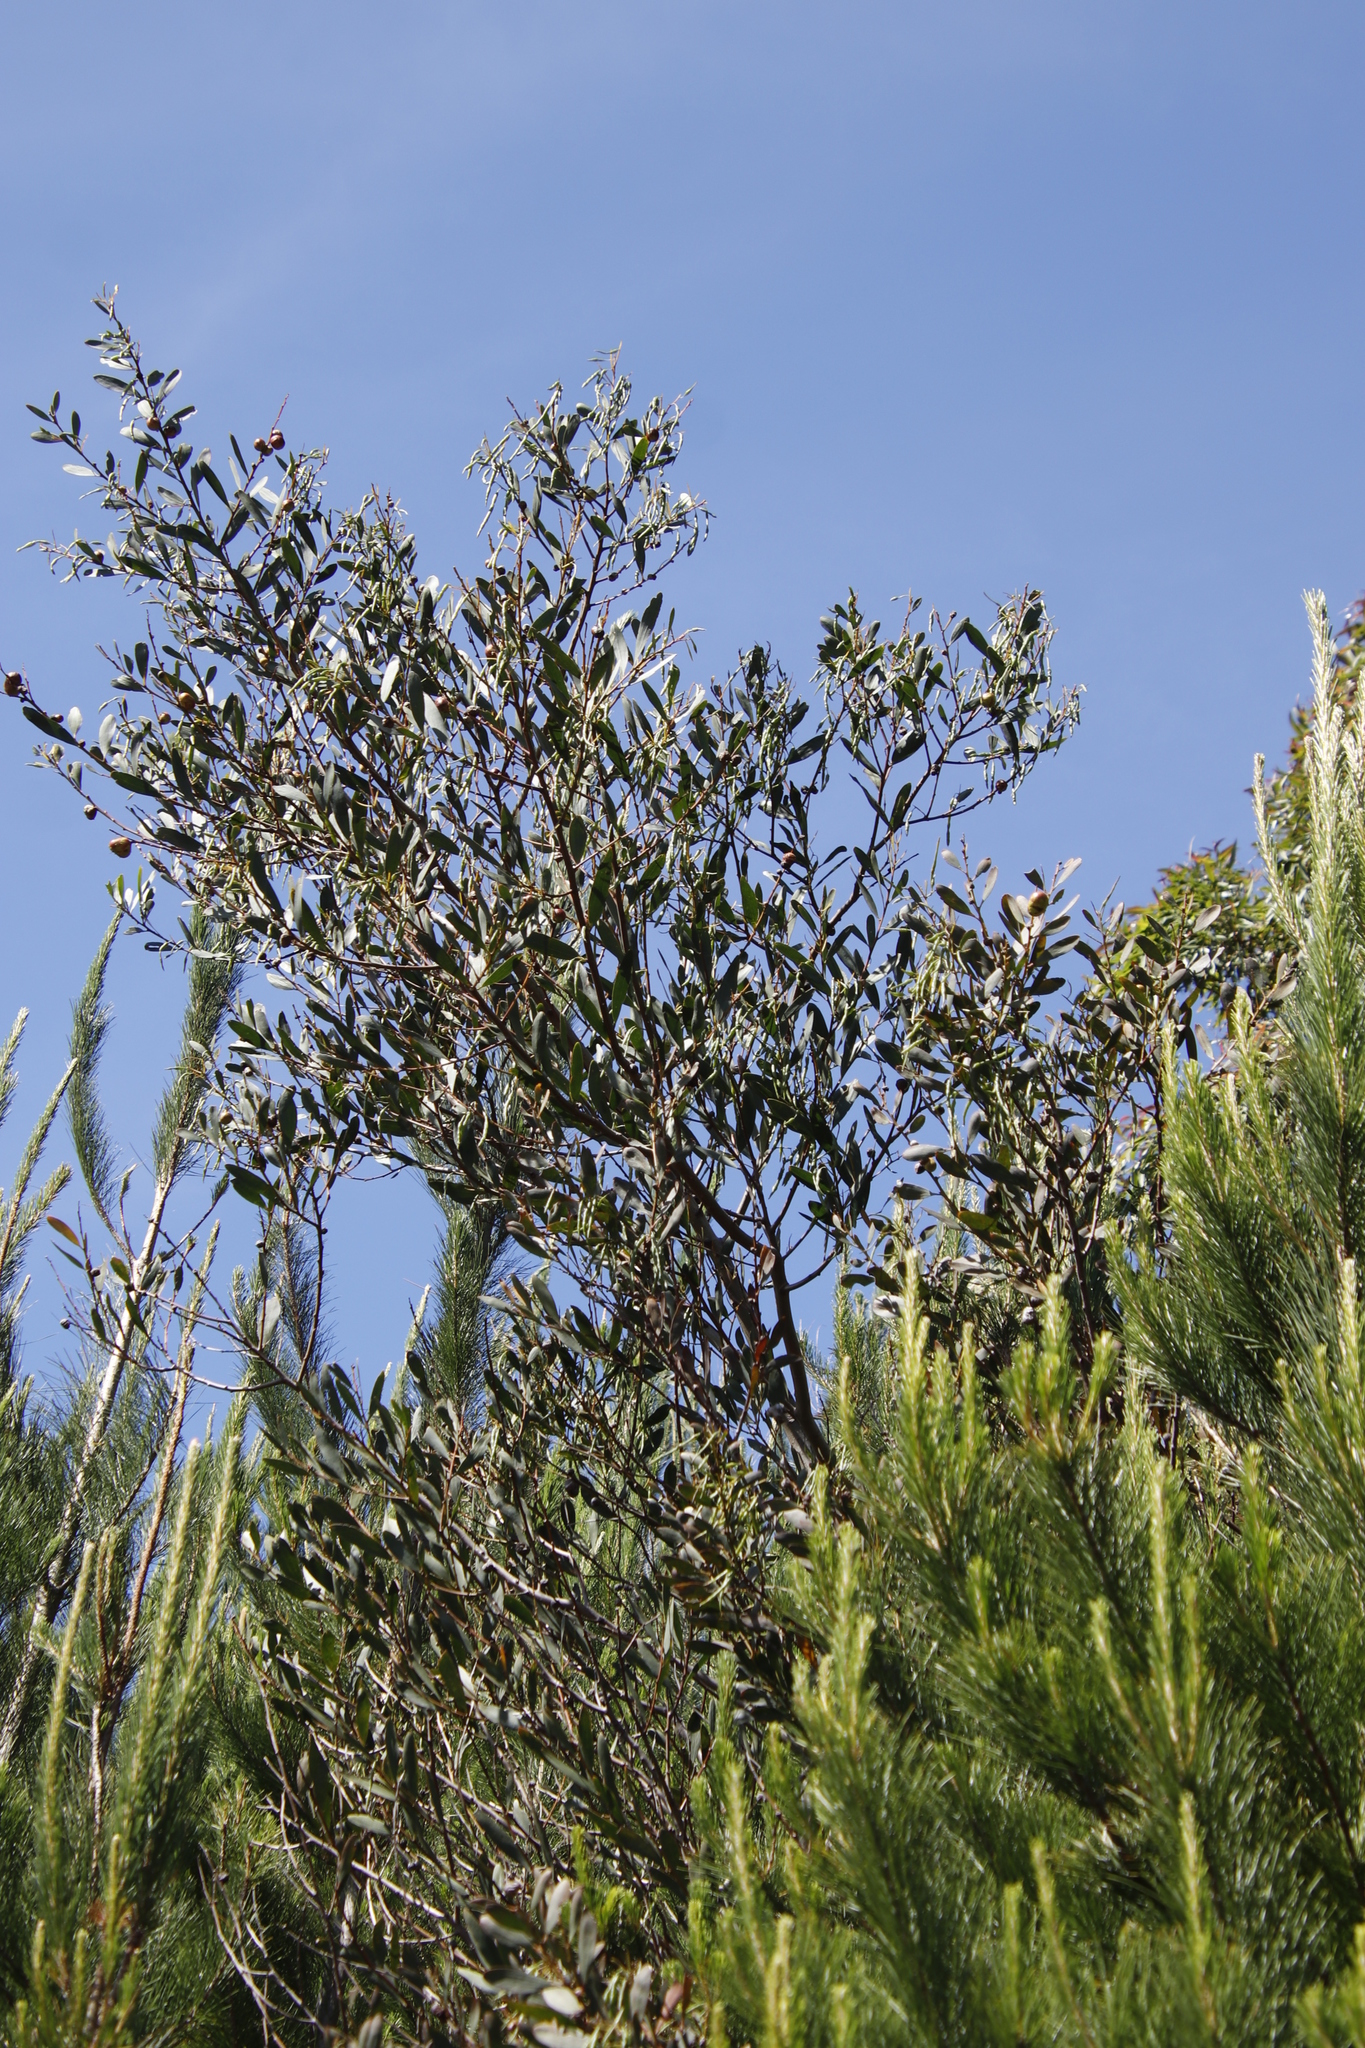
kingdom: Plantae
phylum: Tracheophyta
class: Magnoliopsida
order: Fabales
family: Fabaceae
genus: Acacia
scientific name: Acacia longifolia
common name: Sydney golden wattle
